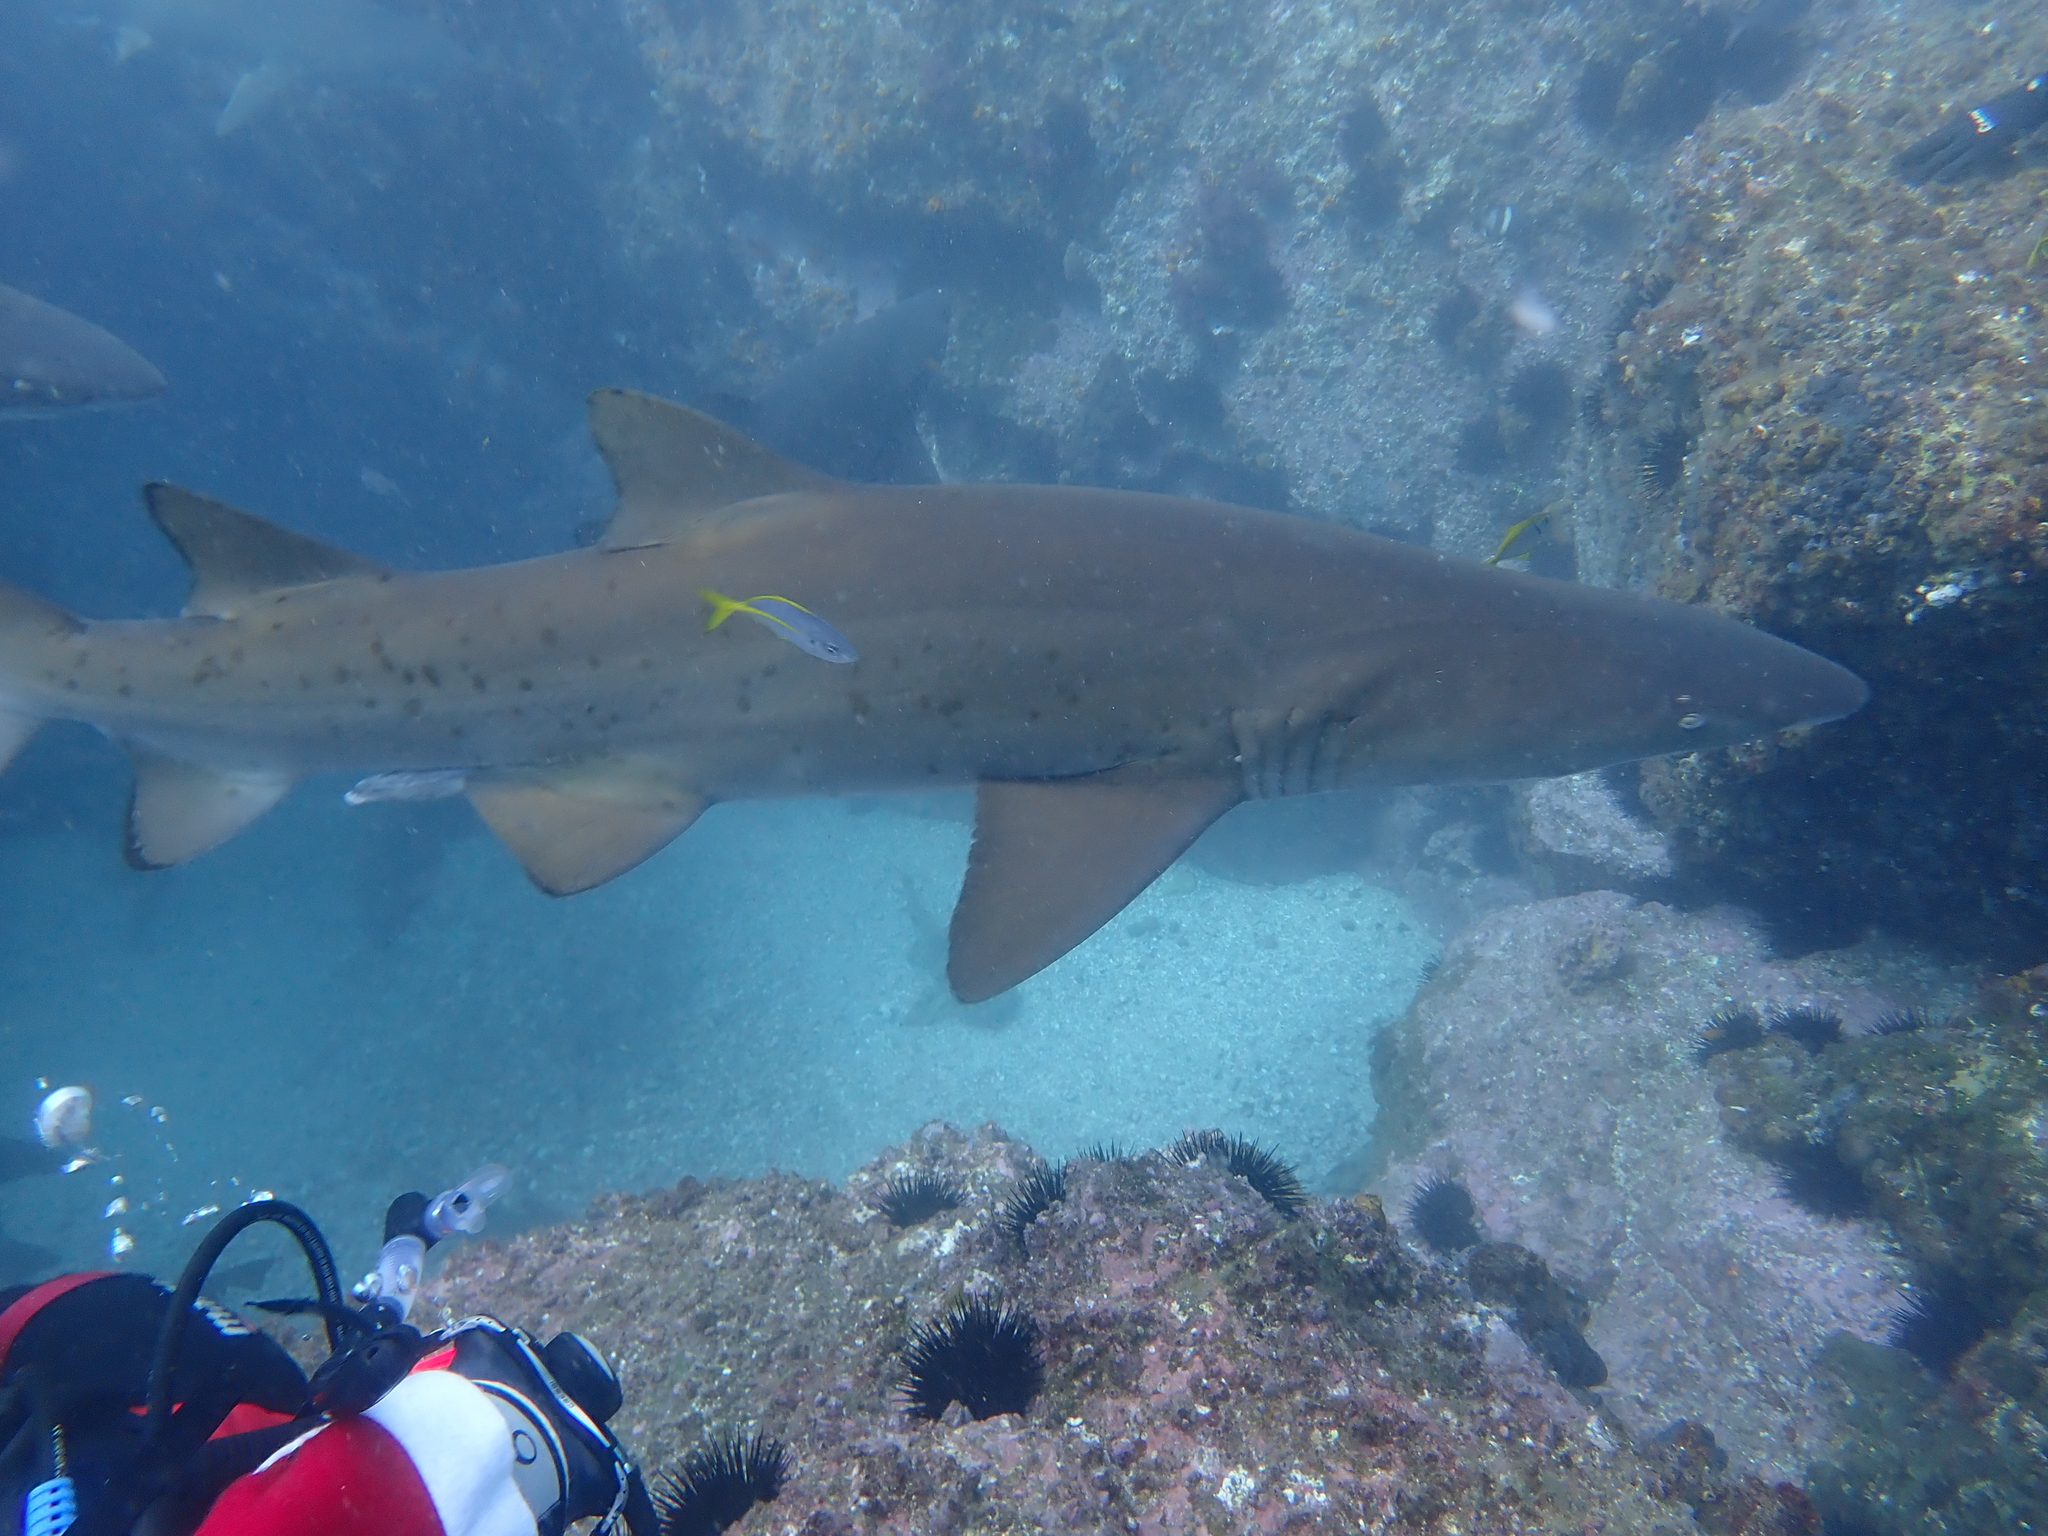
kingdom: Animalia
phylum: Chordata
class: Elasmobranchii
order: Lamniformes
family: Odontaspididae
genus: Carcharias
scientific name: Carcharias taurus
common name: Sand shark
